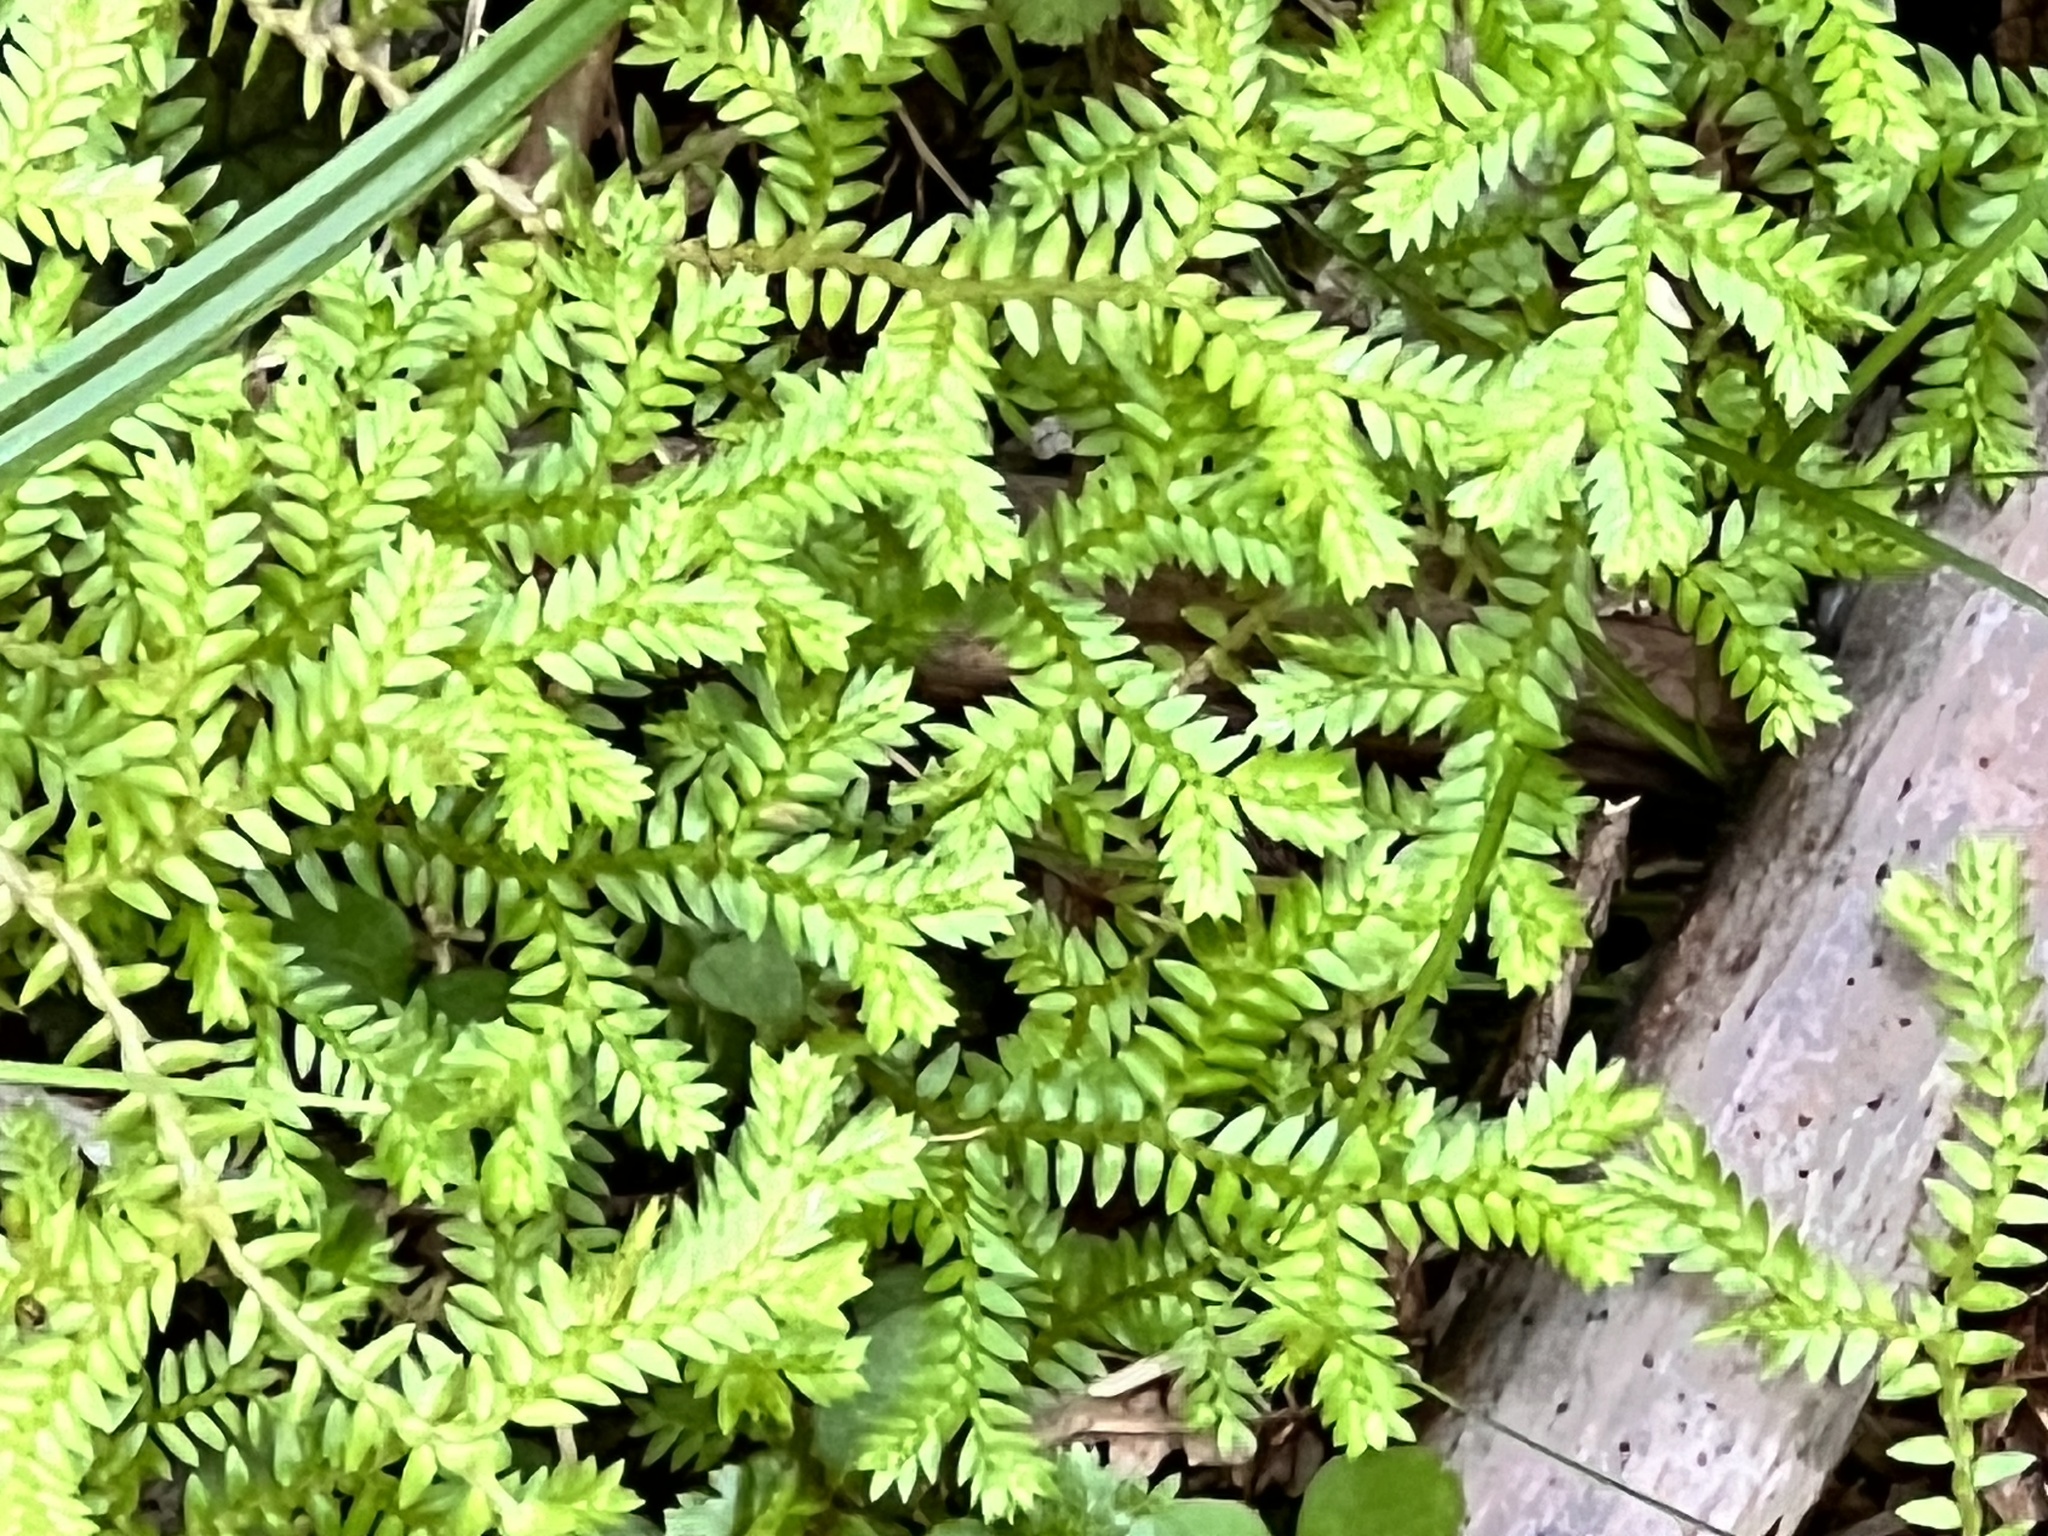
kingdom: Plantae
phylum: Tracheophyta
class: Lycopodiopsida
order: Selaginellales
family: Selaginellaceae
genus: Selaginella
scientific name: Selaginella kraussiana
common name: Krauss' spikemoss
